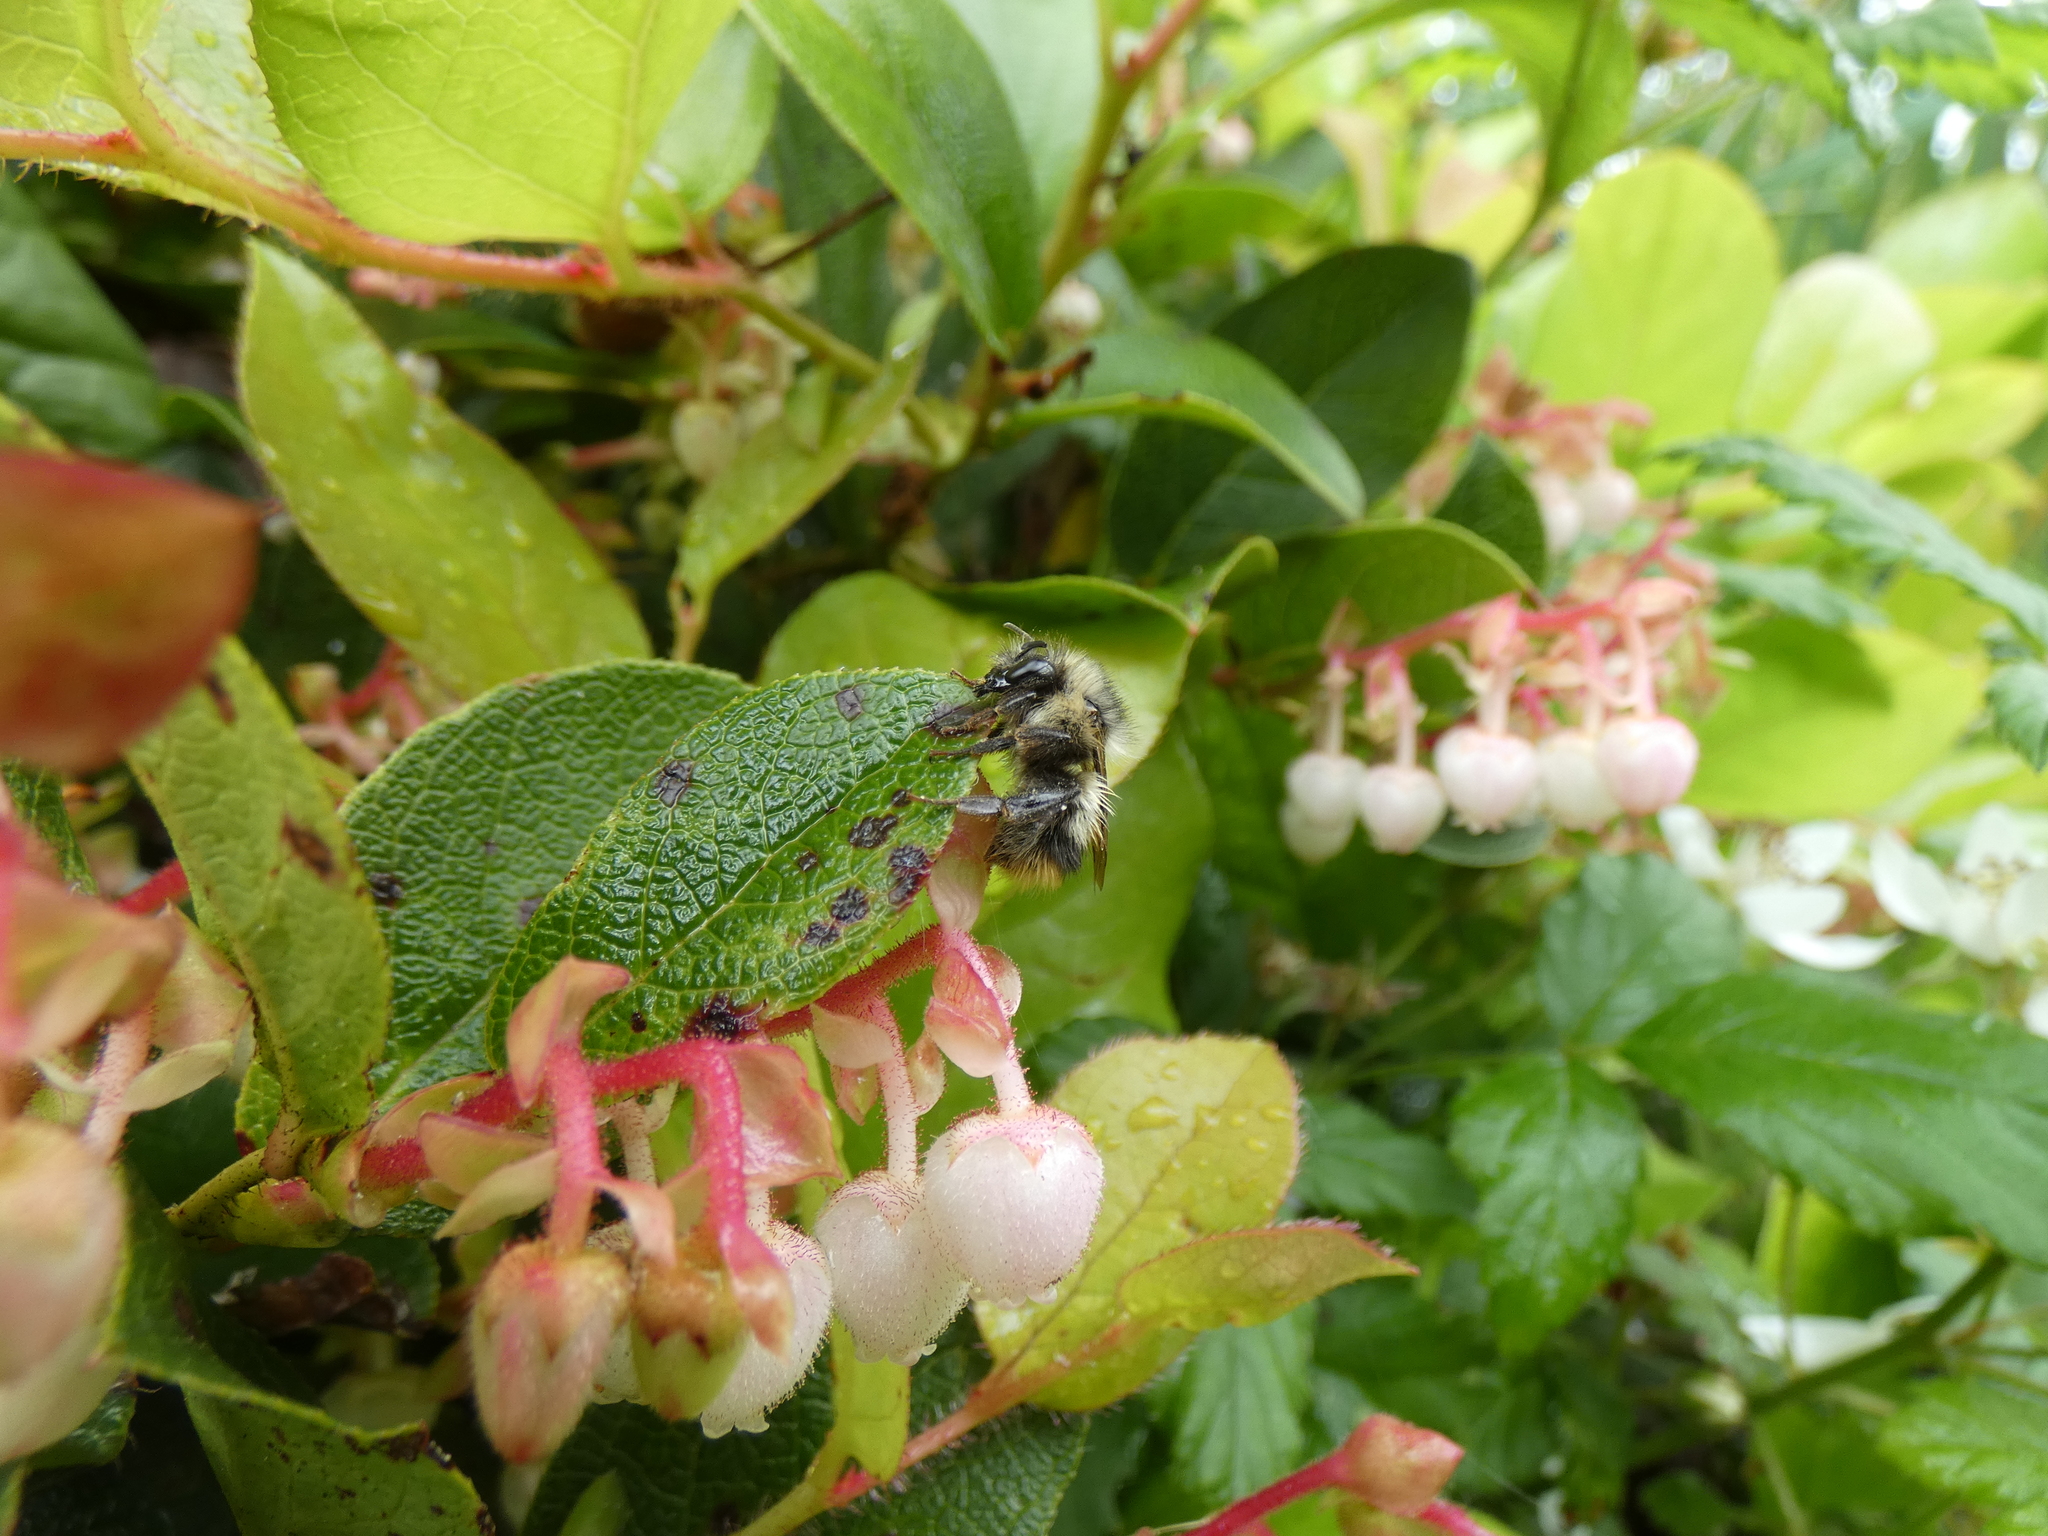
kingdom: Animalia
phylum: Arthropoda
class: Insecta
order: Hymenoptera
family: Apidae
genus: Bombus
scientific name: Bombus mixtus
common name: Fuzzy-horned bumble bee
